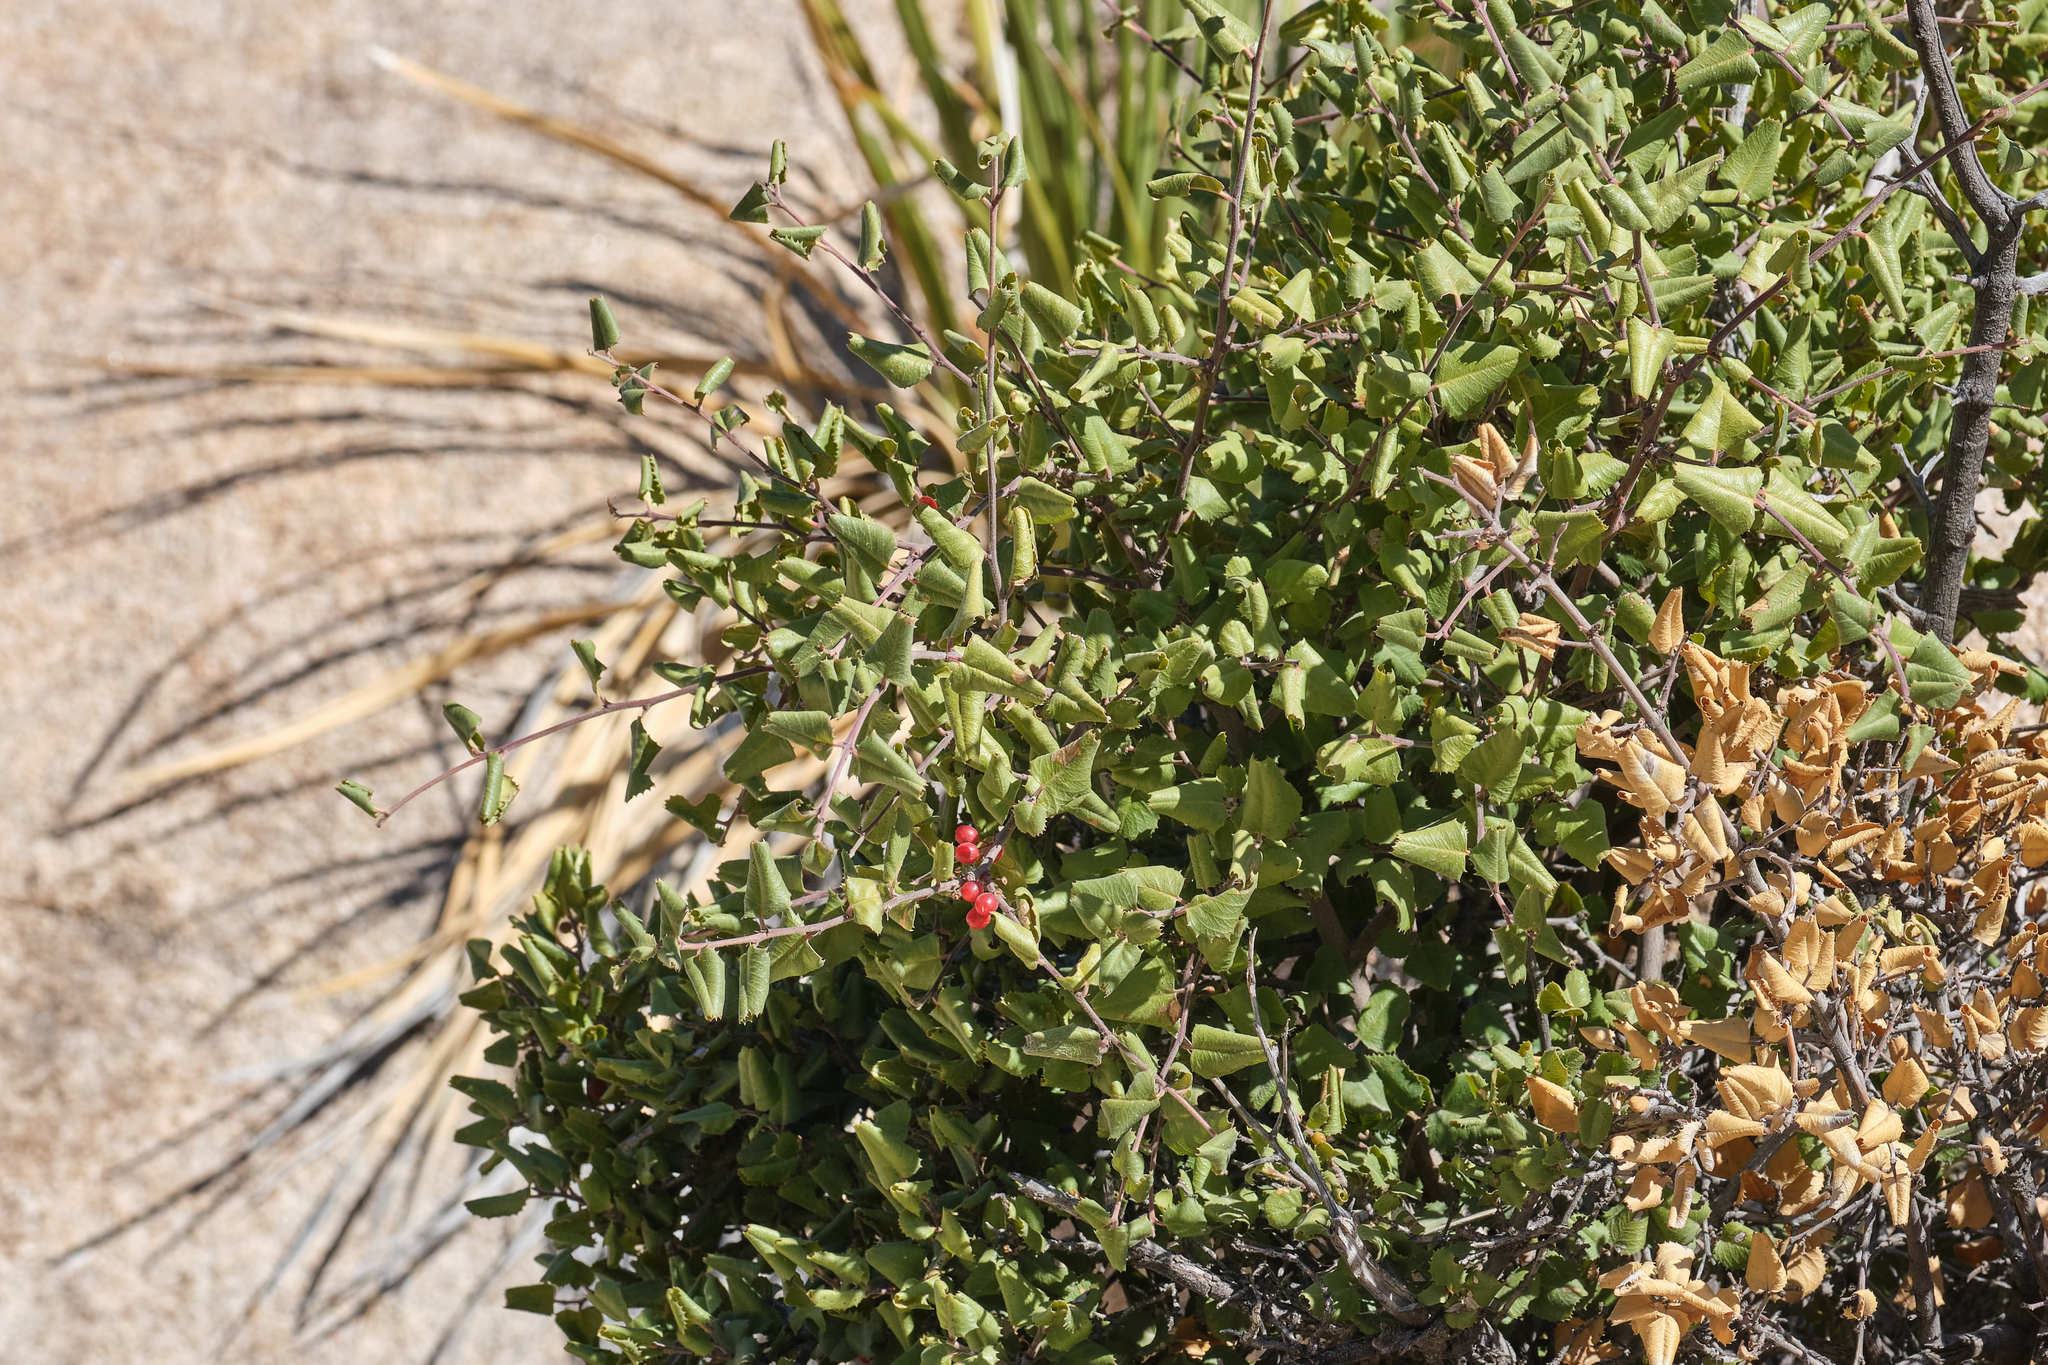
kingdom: Plantae
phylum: Tracheophyta
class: Magnoliopsida
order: Rosales
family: Rhamnaceae
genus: Endotropis
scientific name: Endotropis crocea
